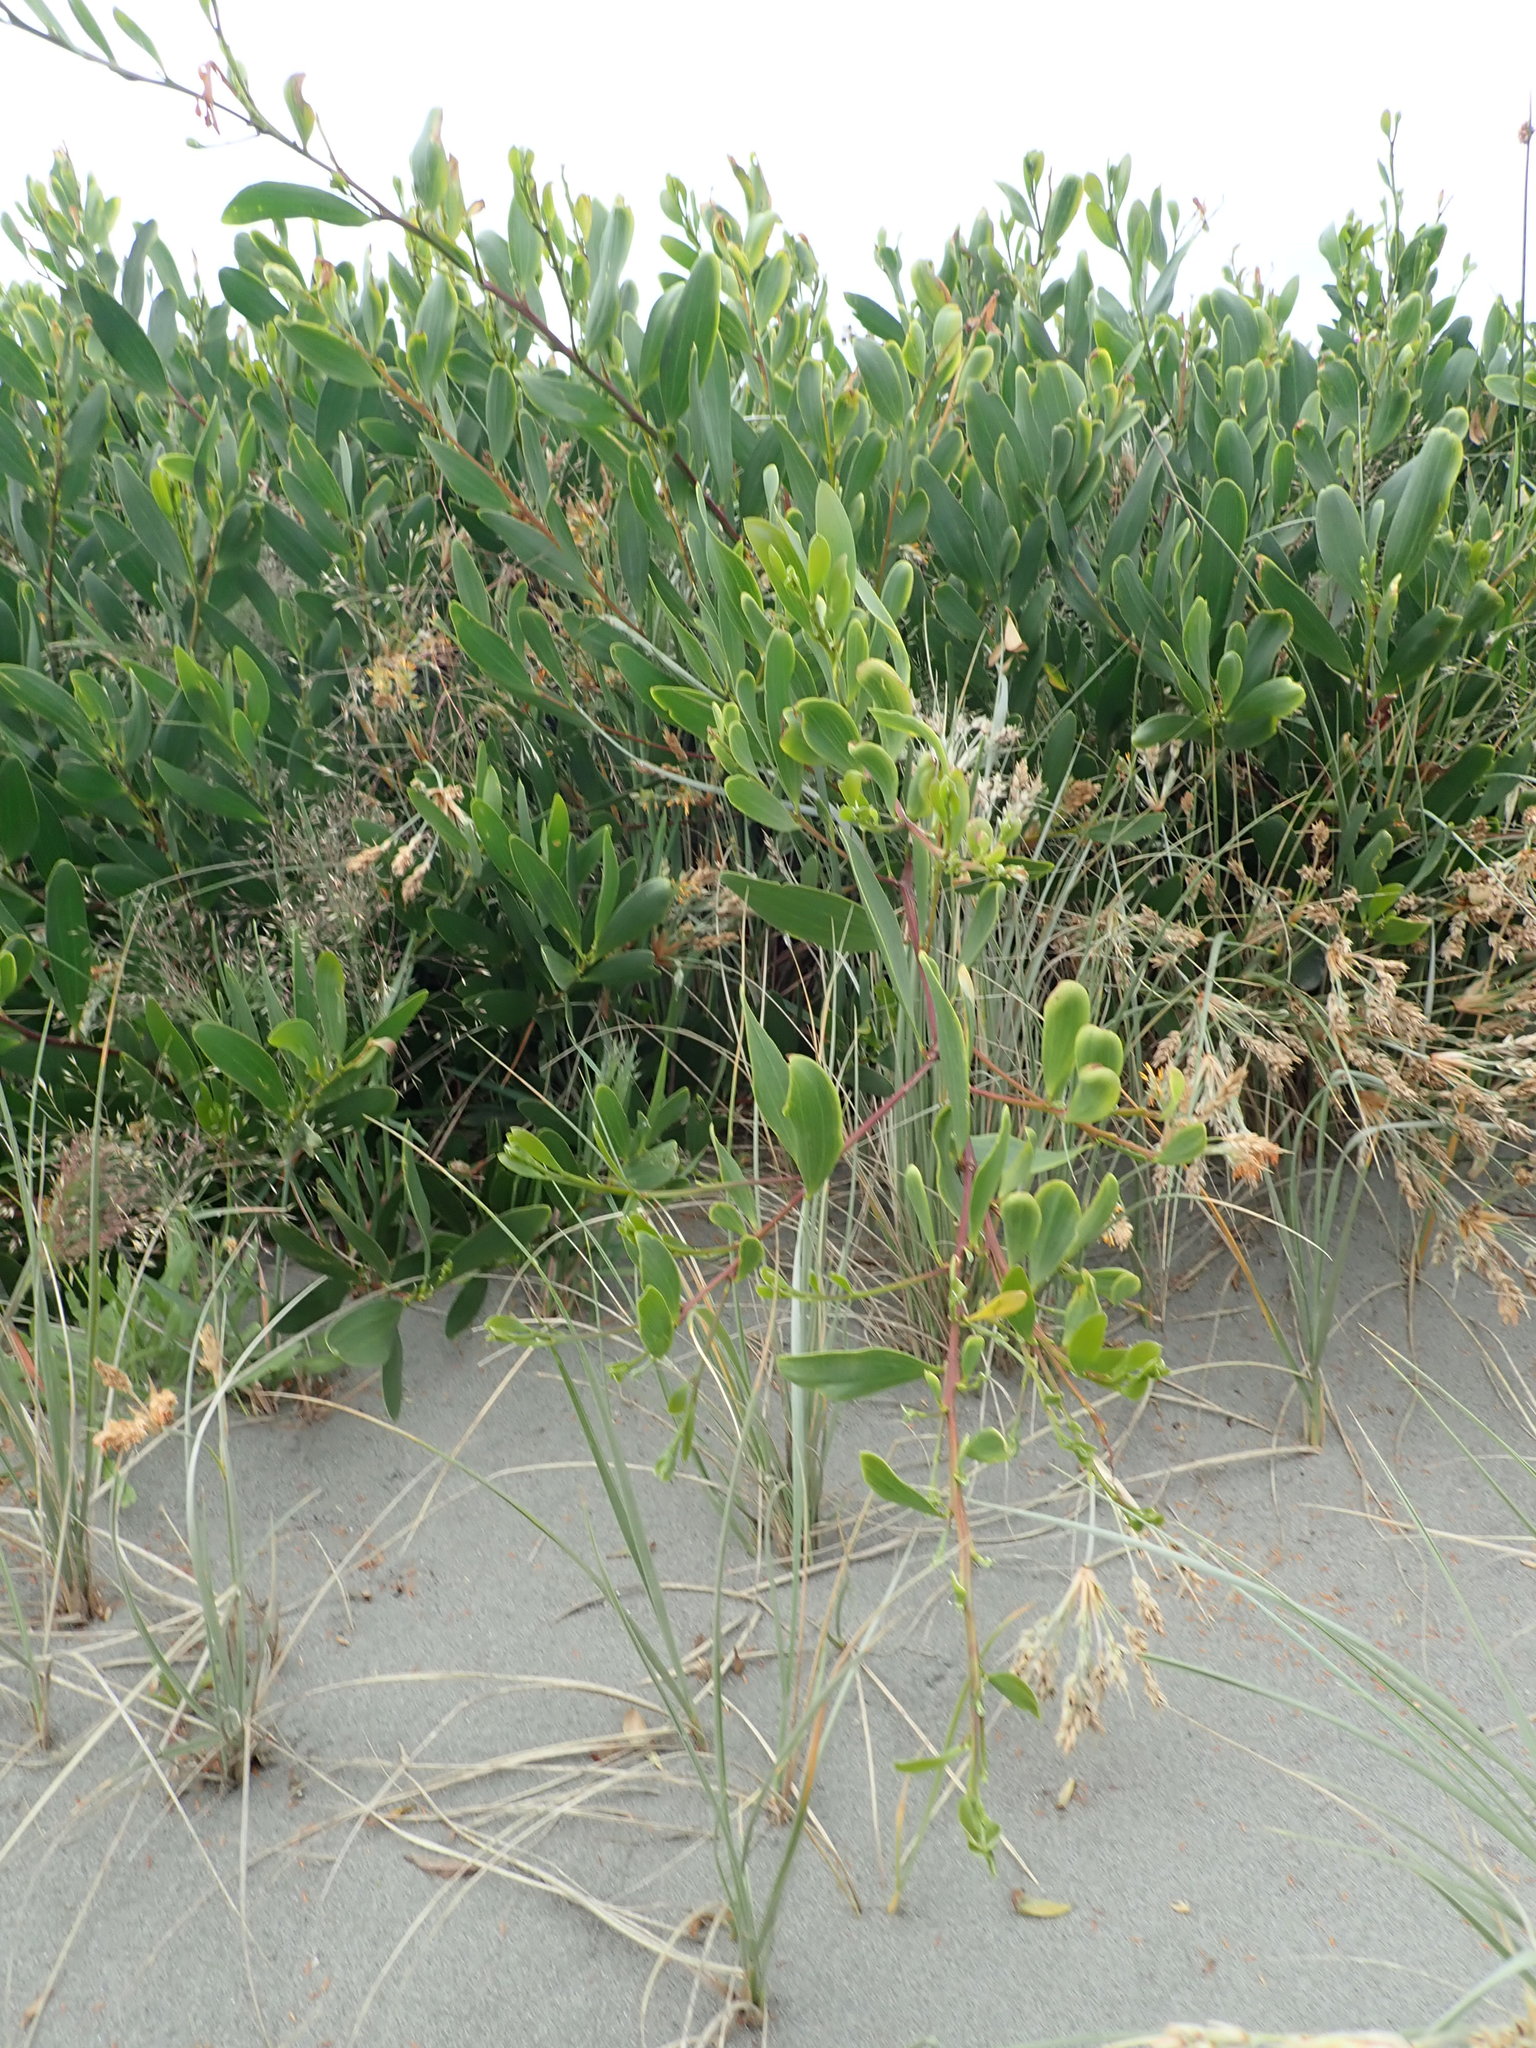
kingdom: Plantae
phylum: Tracheophyta
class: Magnoliopsida
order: Fabales
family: Fabaceae
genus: Acacia
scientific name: Acacia longifolia
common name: Sydney golden wattle
